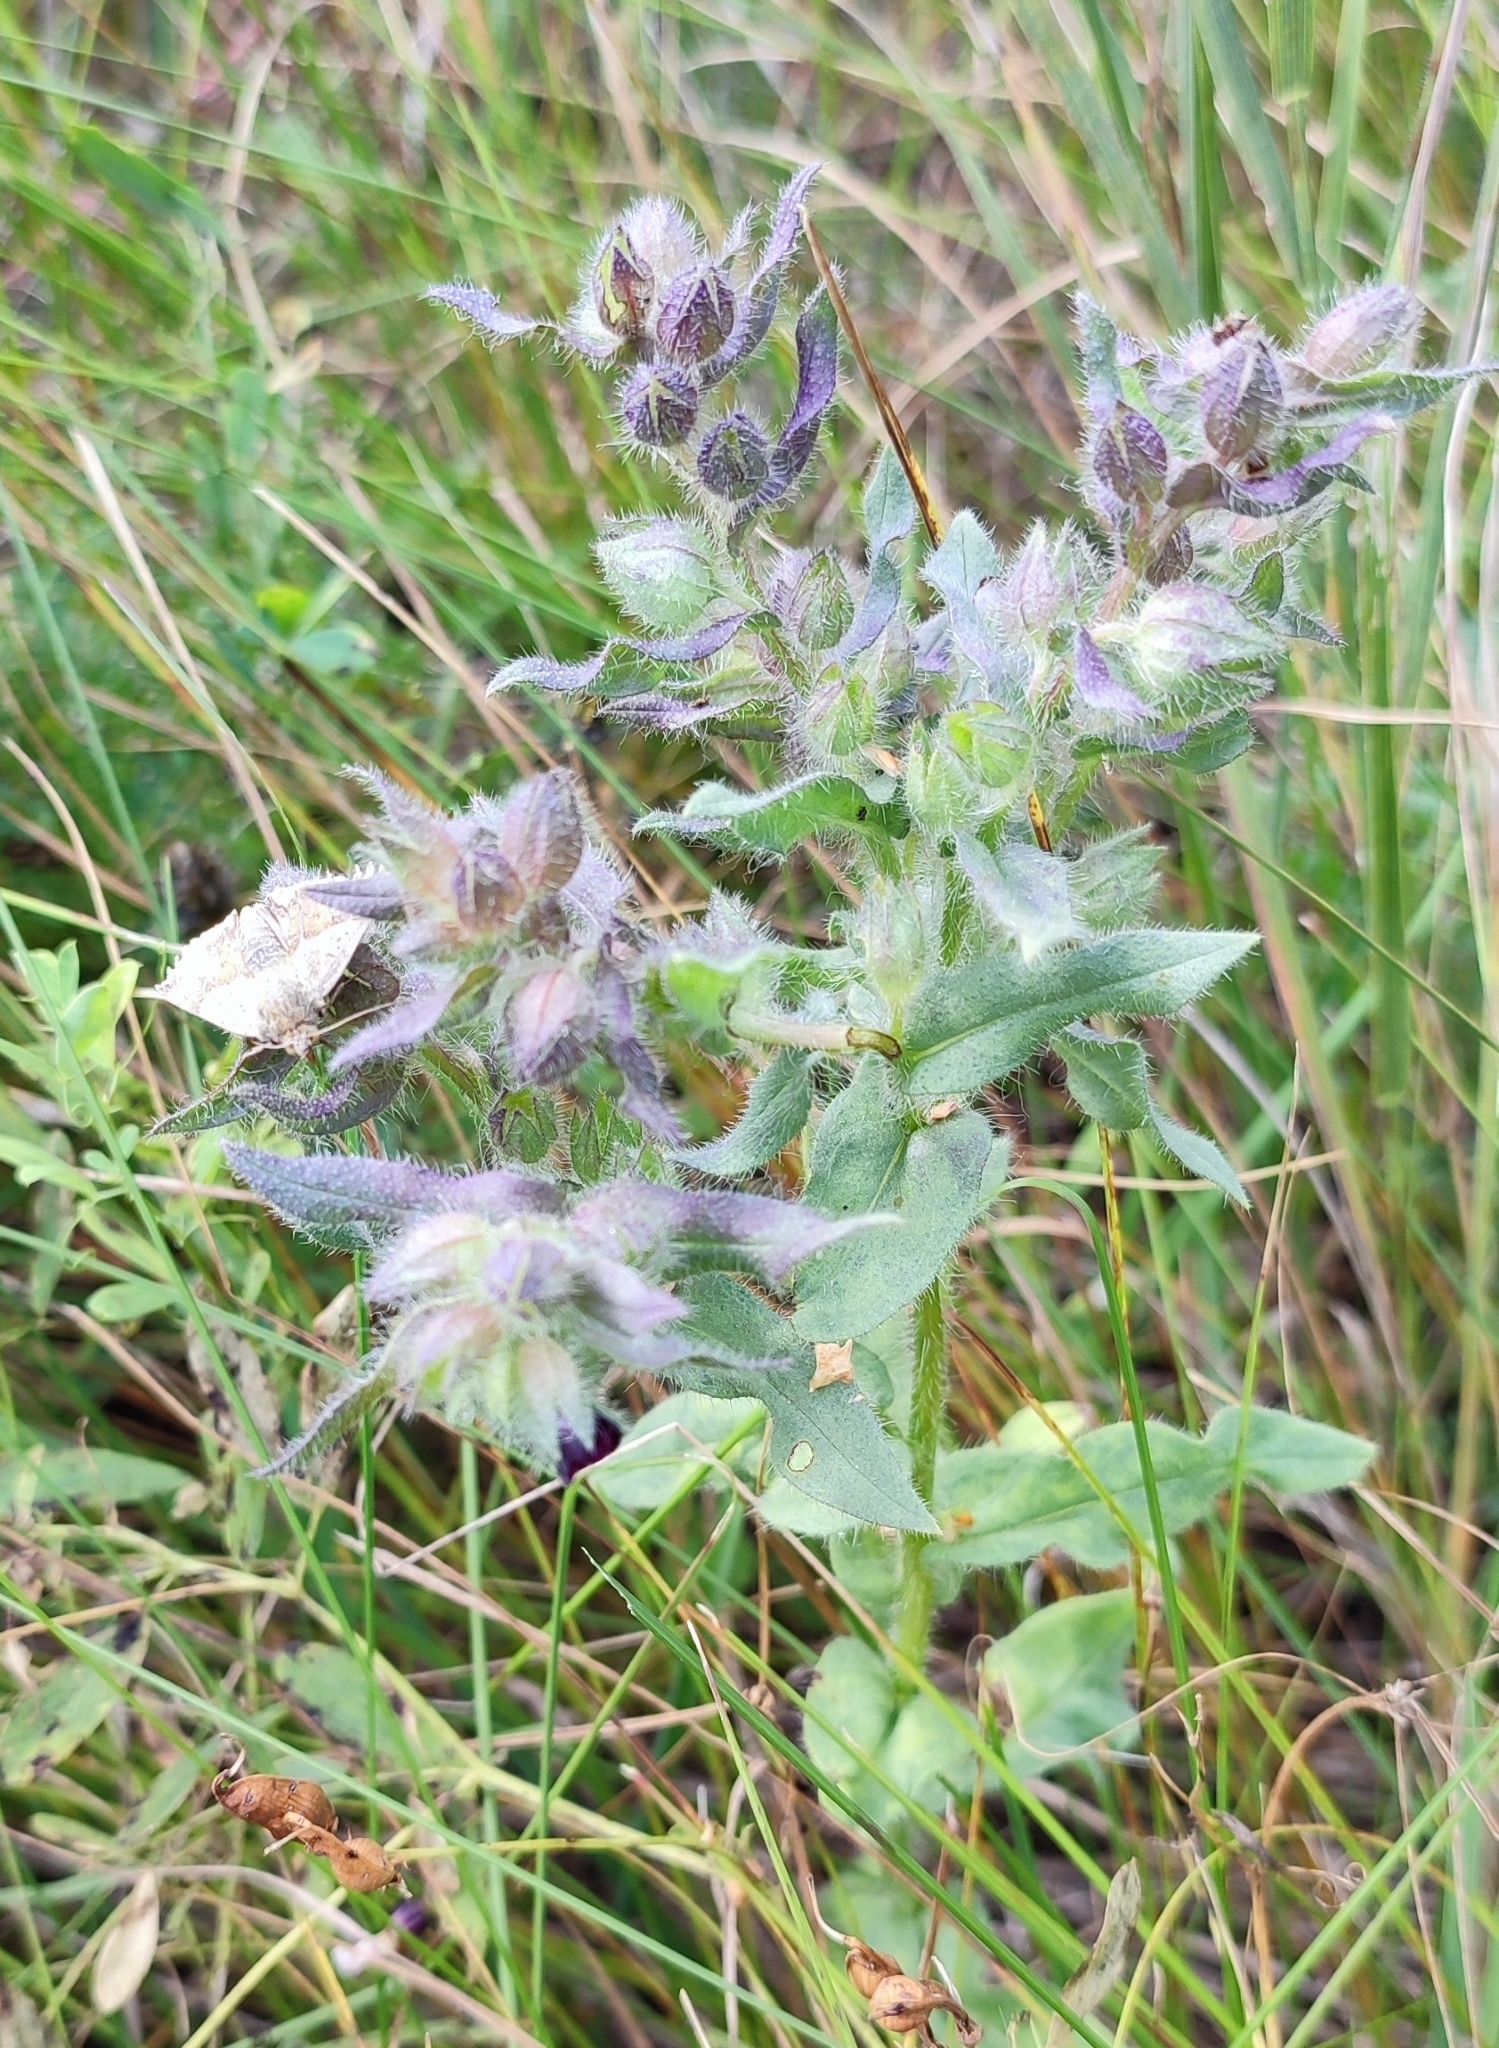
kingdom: Plantae
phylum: Tracheophyta
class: Magnoliopsida
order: Boraginales
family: Boraginaceae
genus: Nonea
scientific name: Nonea pulla
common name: Brown nonea
